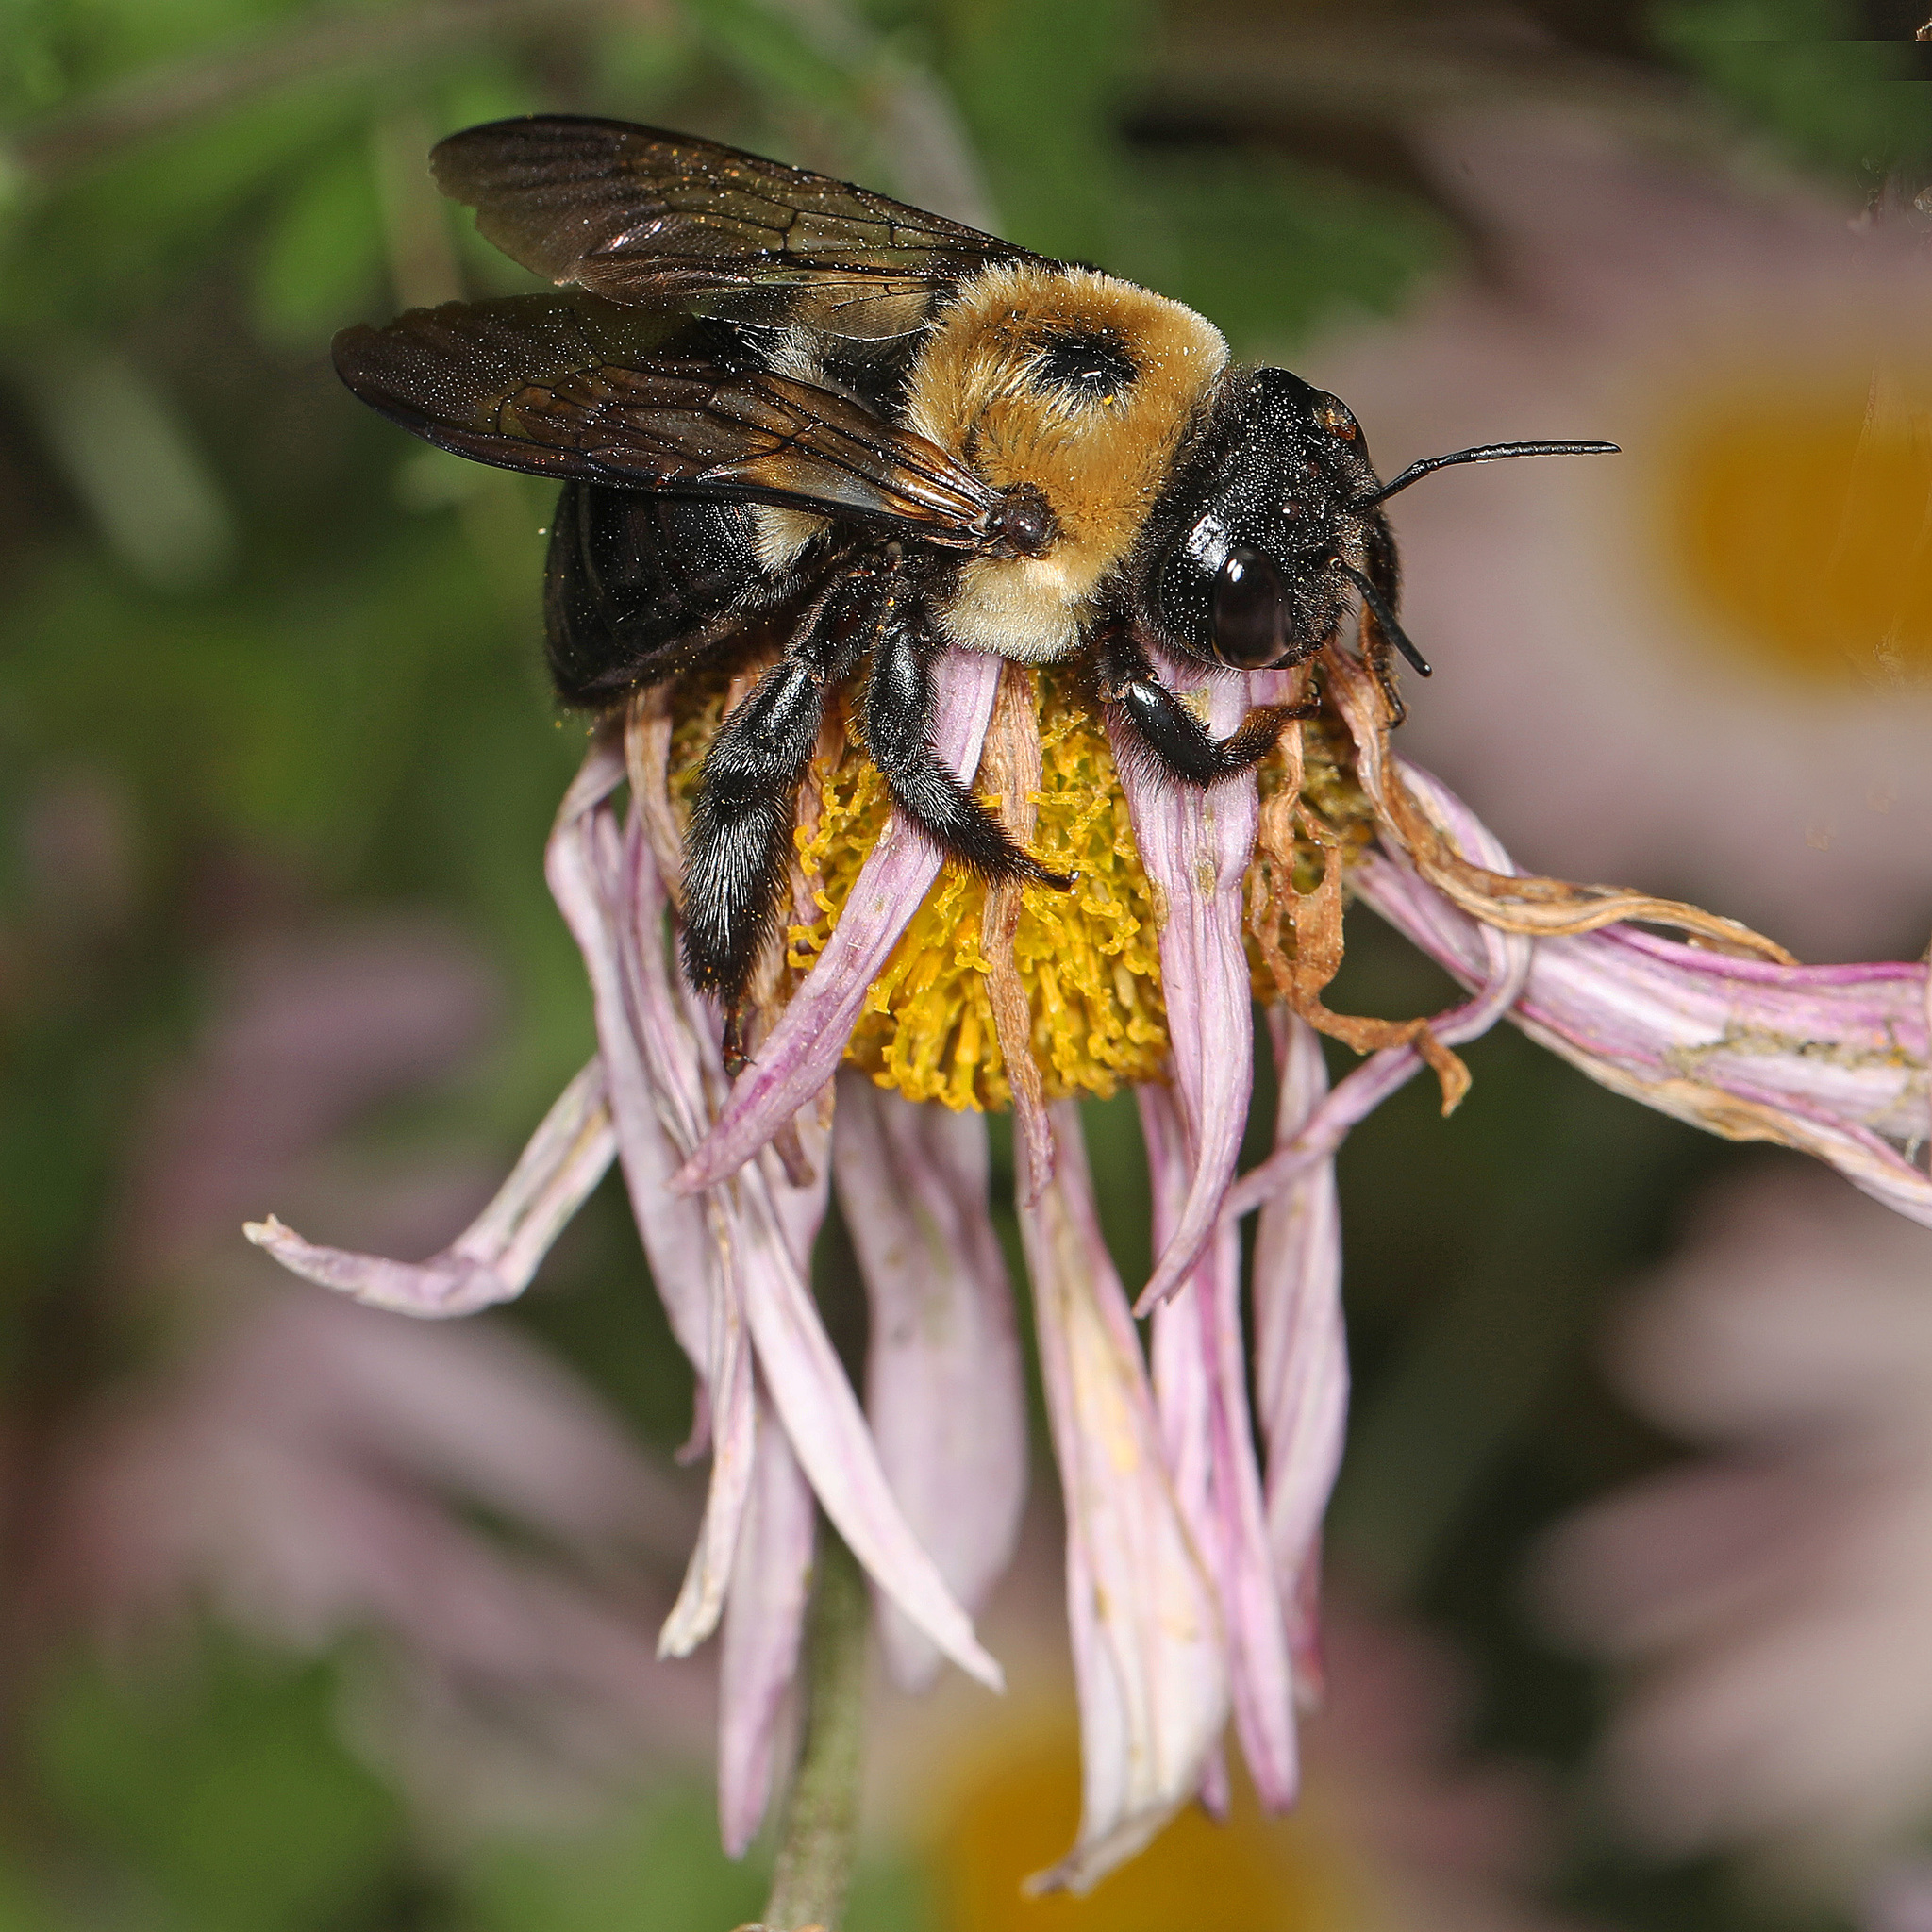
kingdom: Animalia
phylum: Arthropoda
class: Insecta
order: Hymenoptera
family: Apidae
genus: Xylocopa
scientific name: Xylocopa virginica
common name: Carpenter bee
